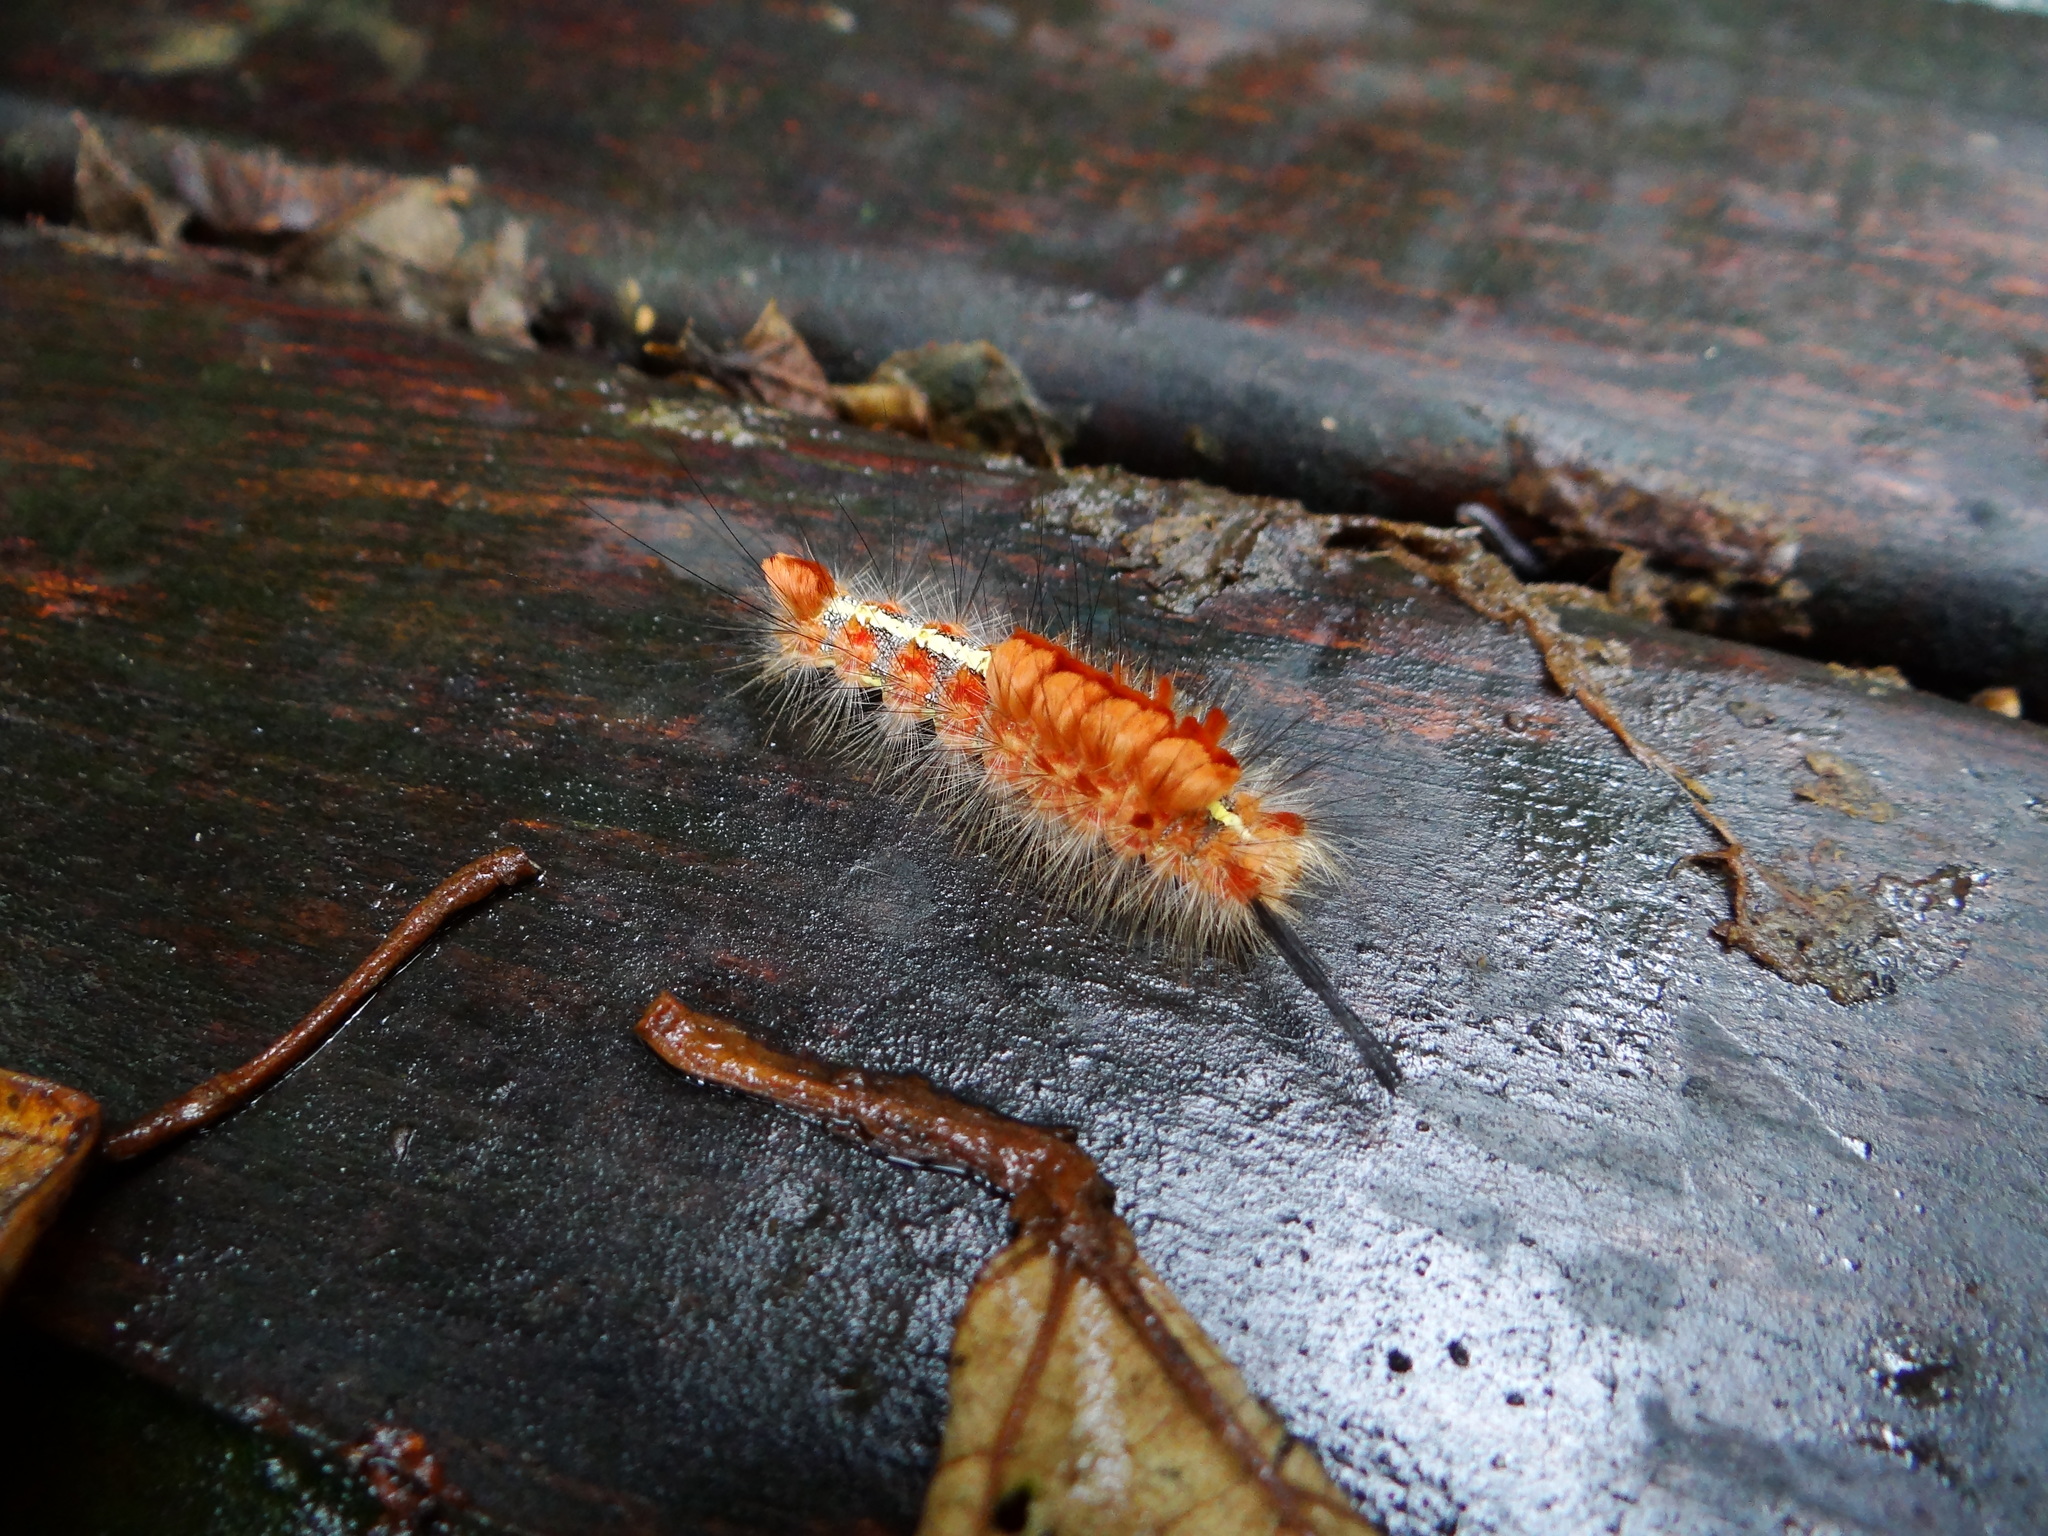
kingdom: Animalia
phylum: Arthropoda
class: Insecta
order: Lepidoptera
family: Erebidae
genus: Dasychira
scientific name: Dasychira olivacea
